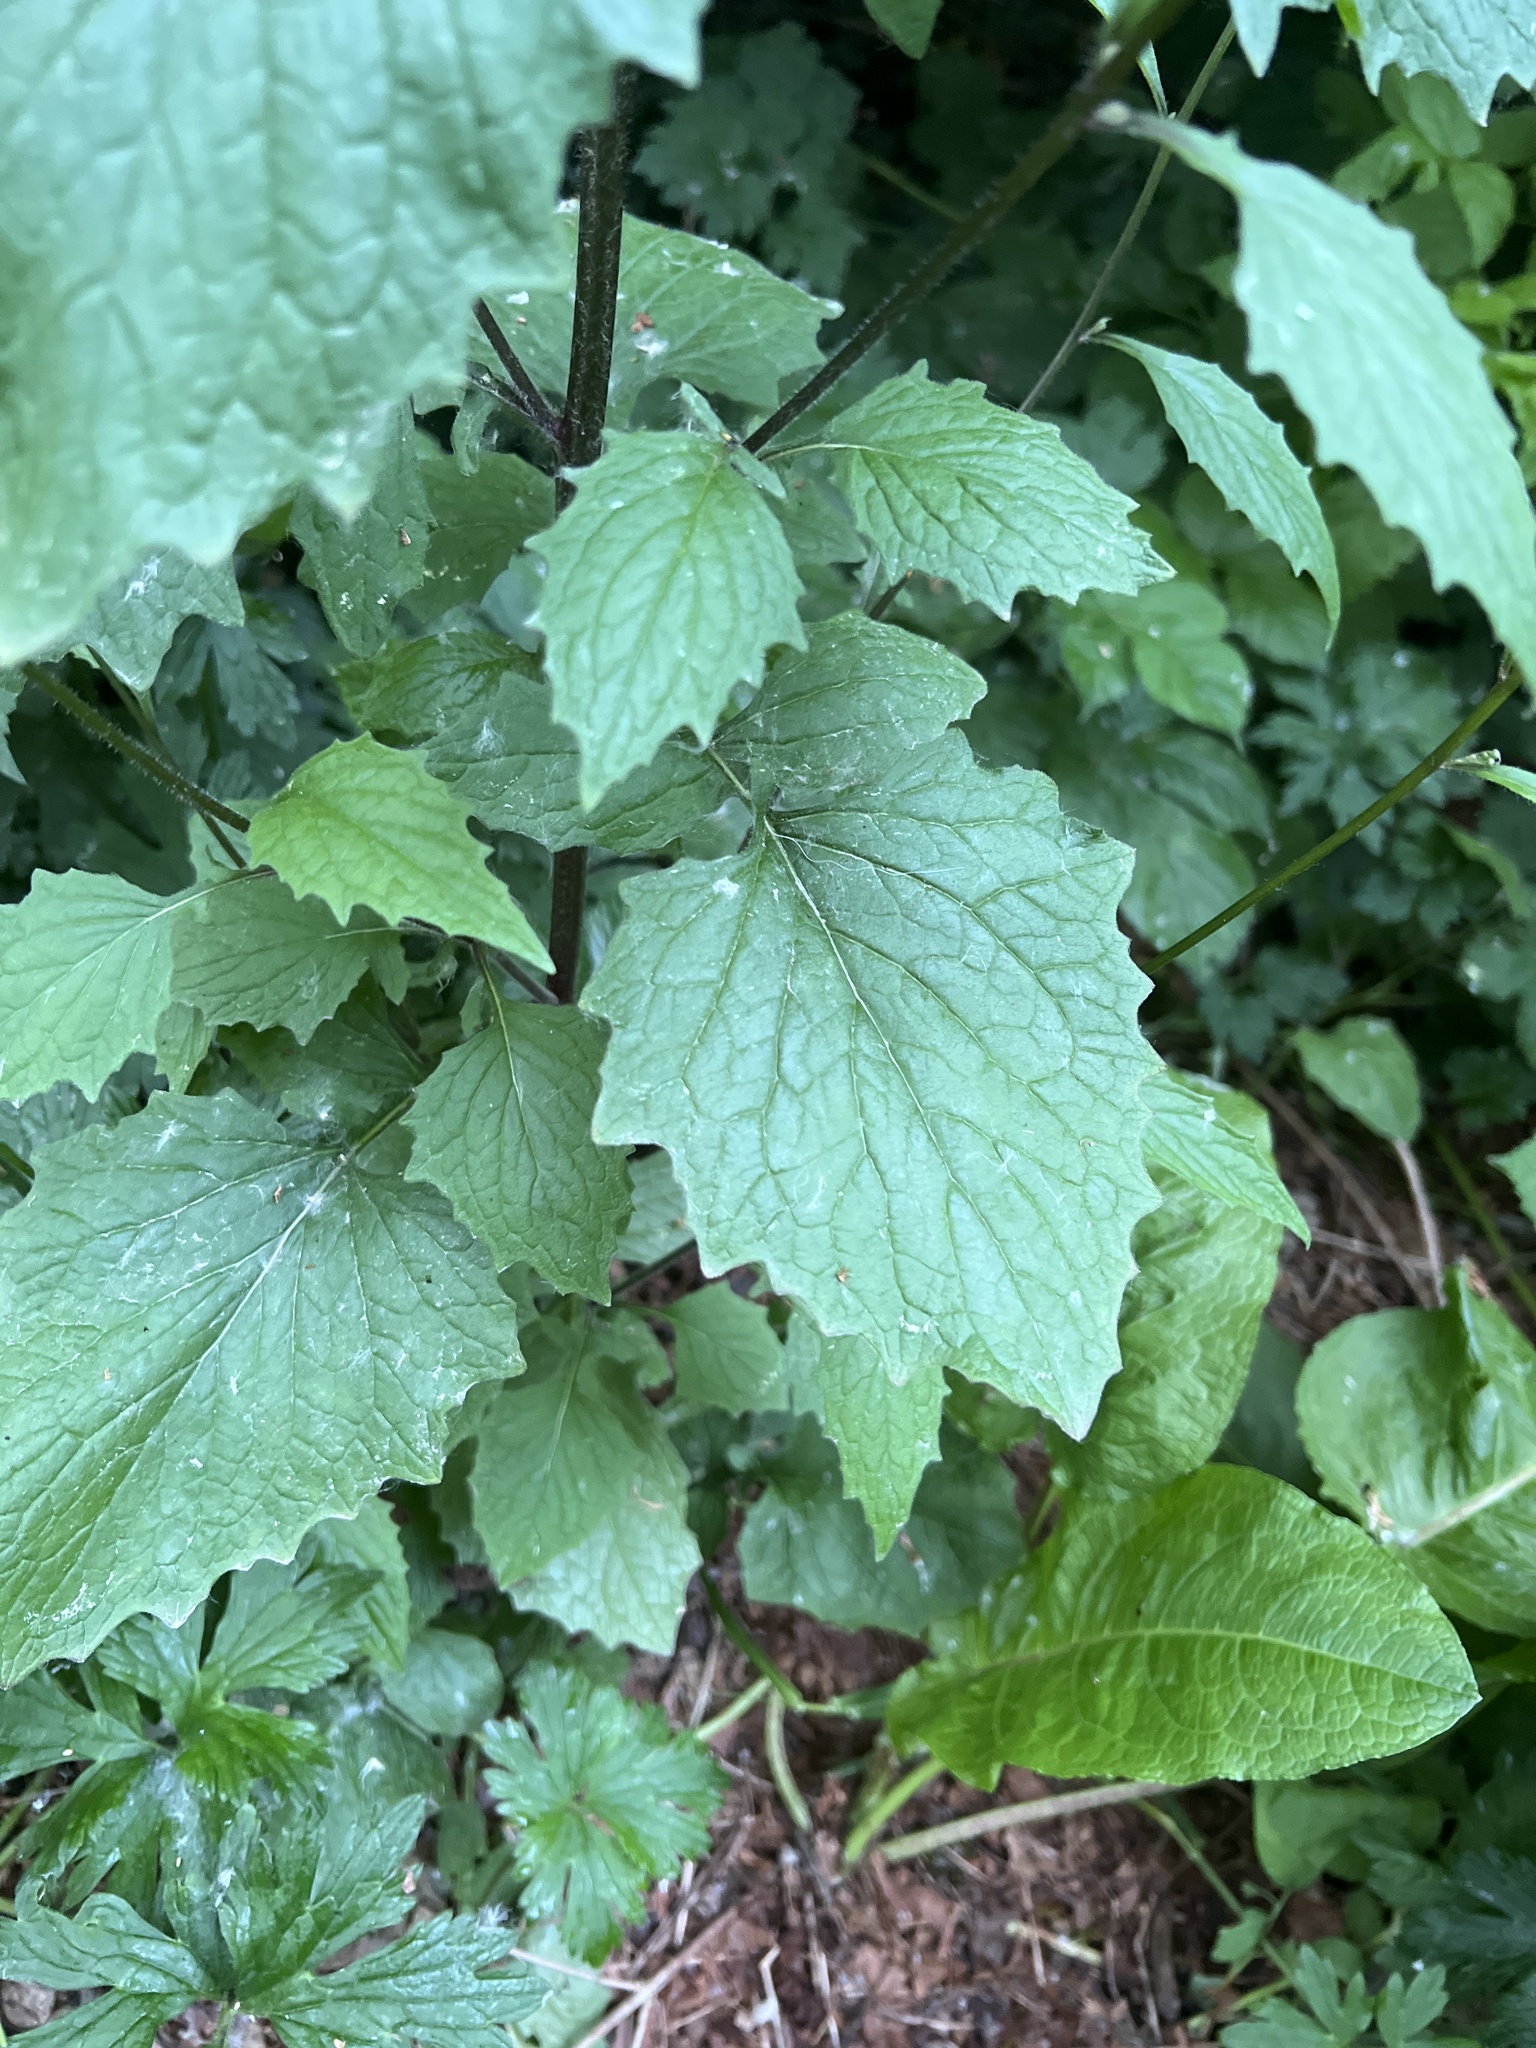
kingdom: Plantae
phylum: Tracheophyta
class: Magnoliopsida
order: Asterales
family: Asteraceae
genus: Lapsana
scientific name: Lapsana communis
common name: Nipplewort
